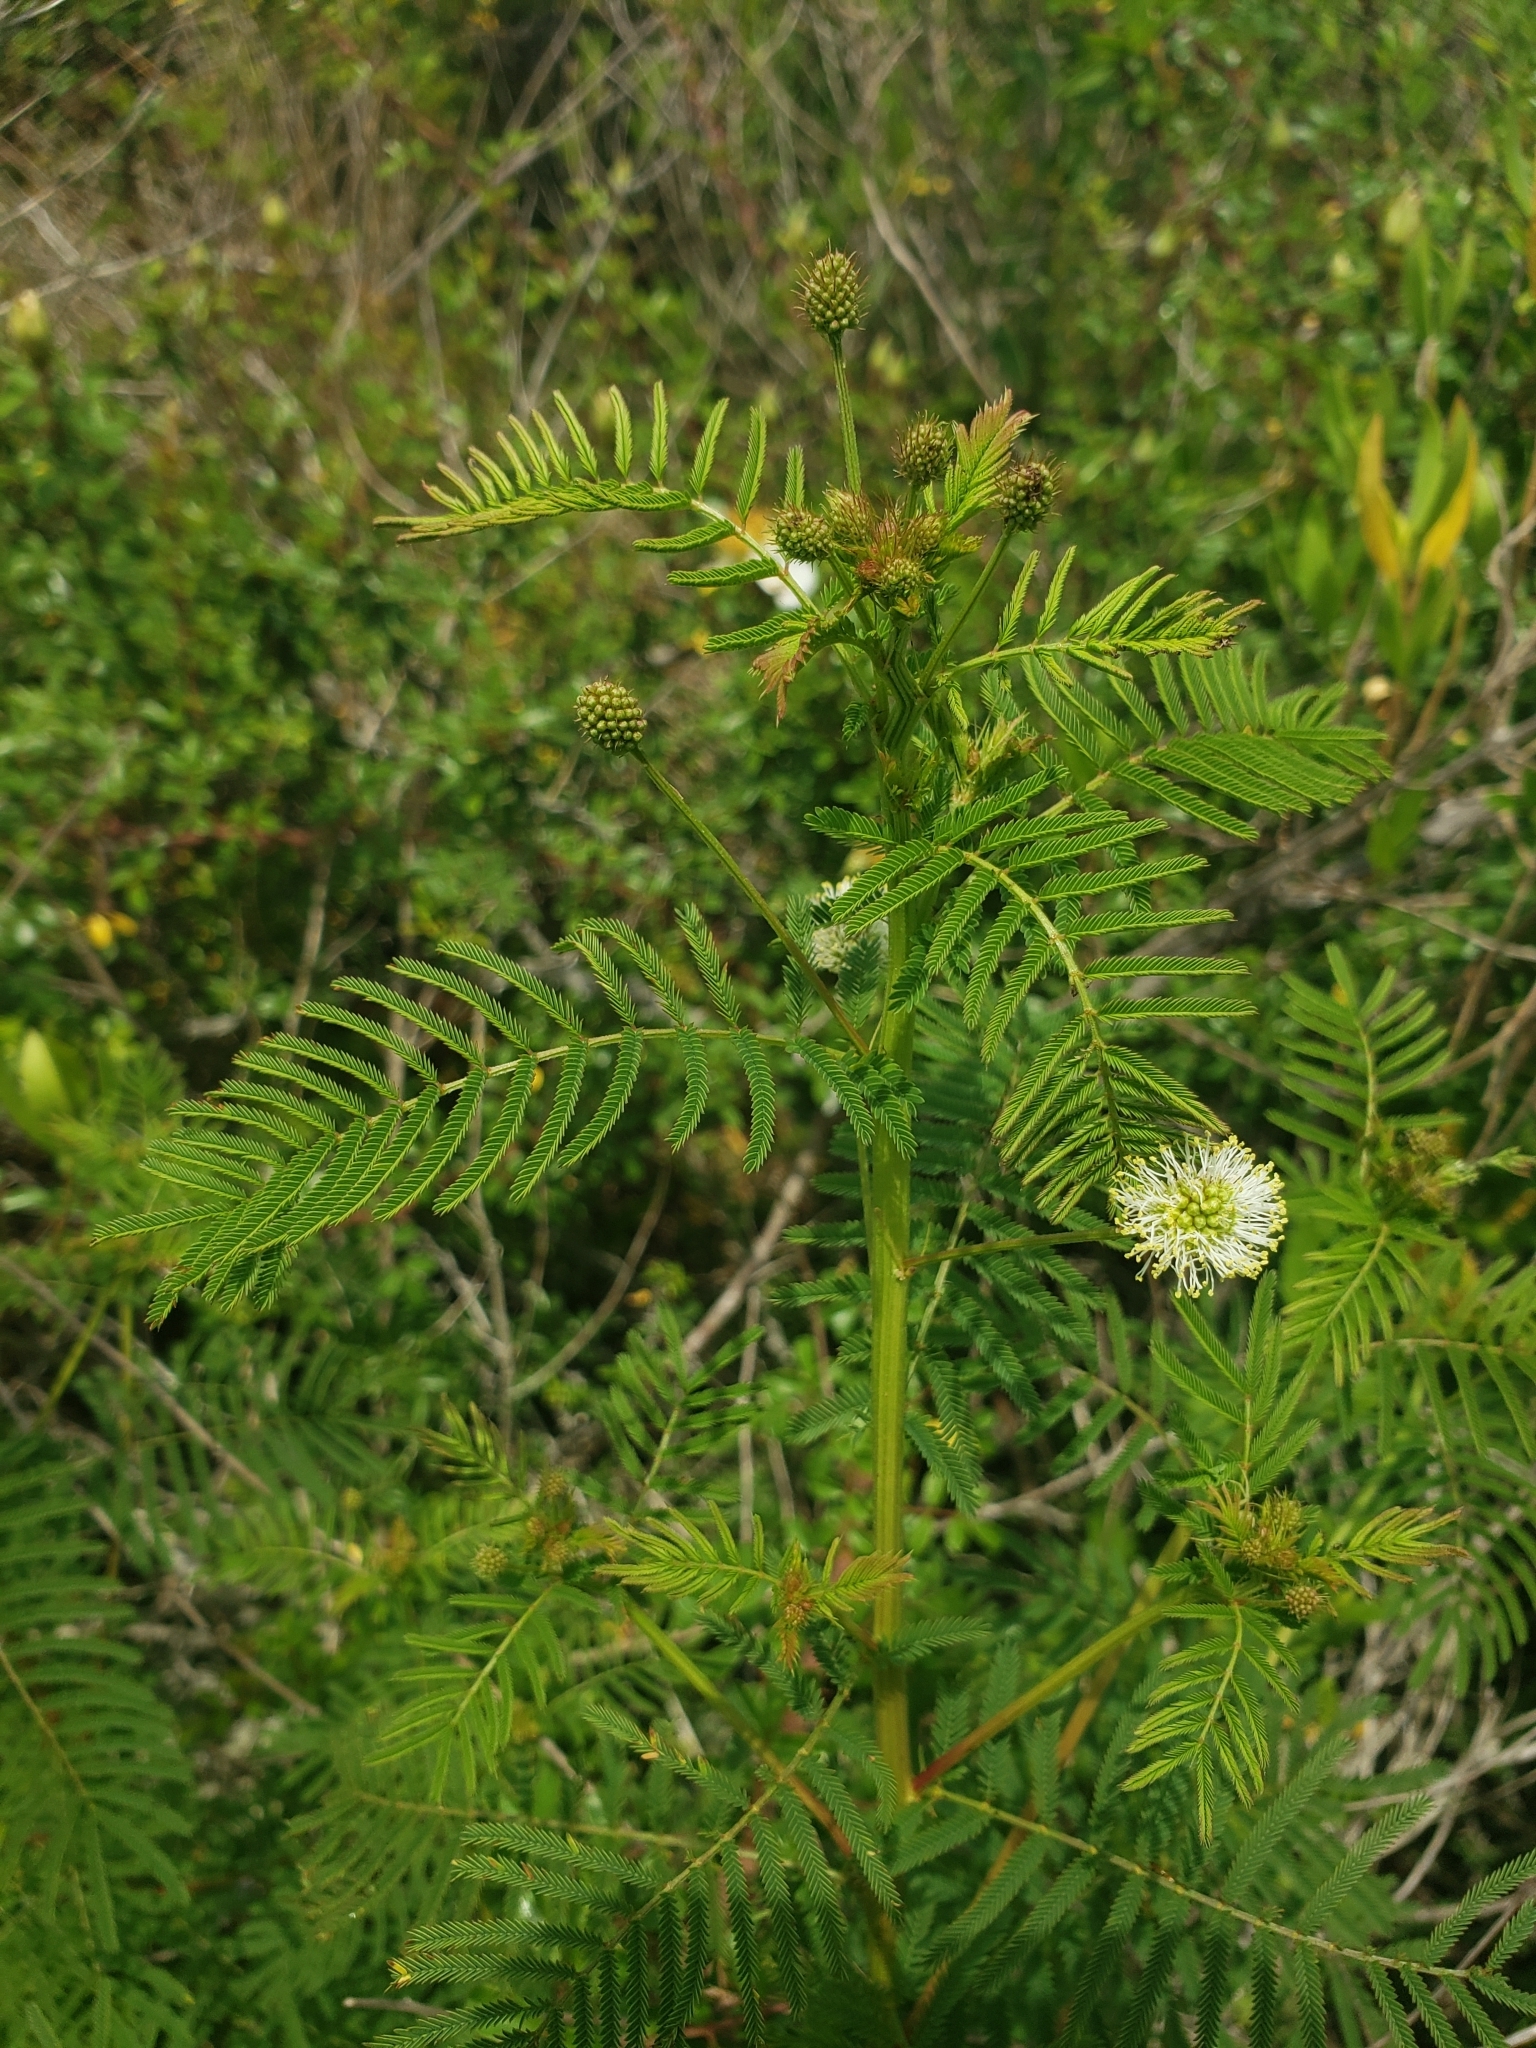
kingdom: Plantae
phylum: Tracheophyta
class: Magnoliopsida
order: Fabales
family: Fabaceae
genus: Desmanthus
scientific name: Desmanthus illinoensis
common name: Illinois bundle-flower
